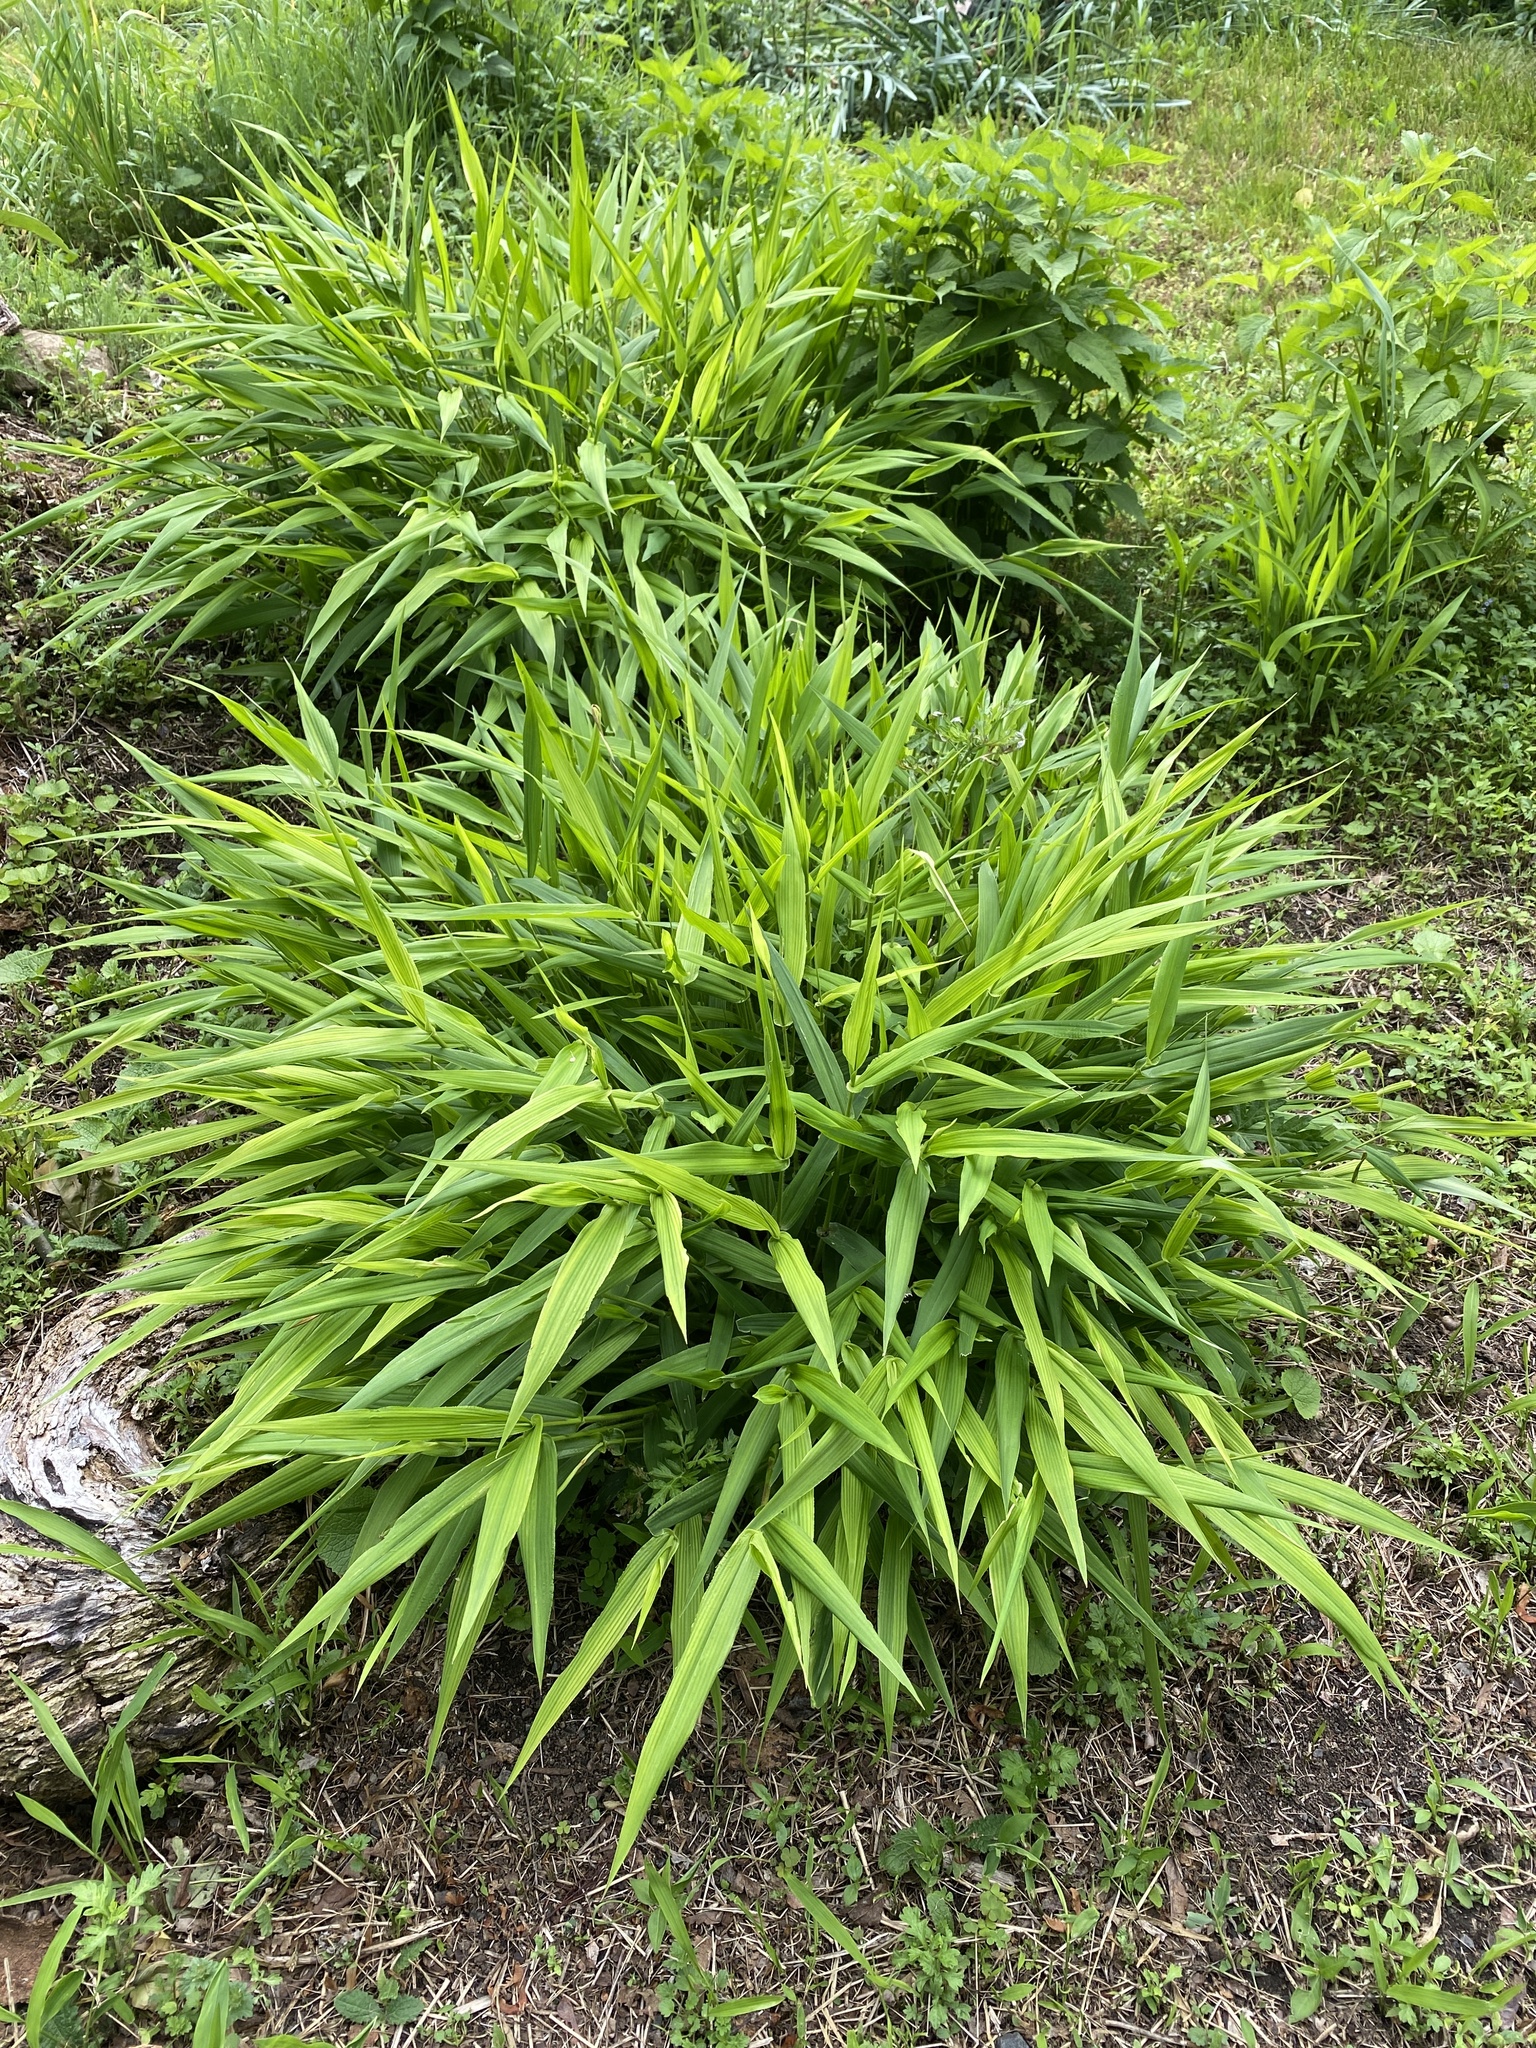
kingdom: Plantae
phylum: Tracheophyta
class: Liliopsida
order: Poales
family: Poaceae
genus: Dichanthelium
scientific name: Dichanthelium clandestinum
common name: Deer-tongue grass
